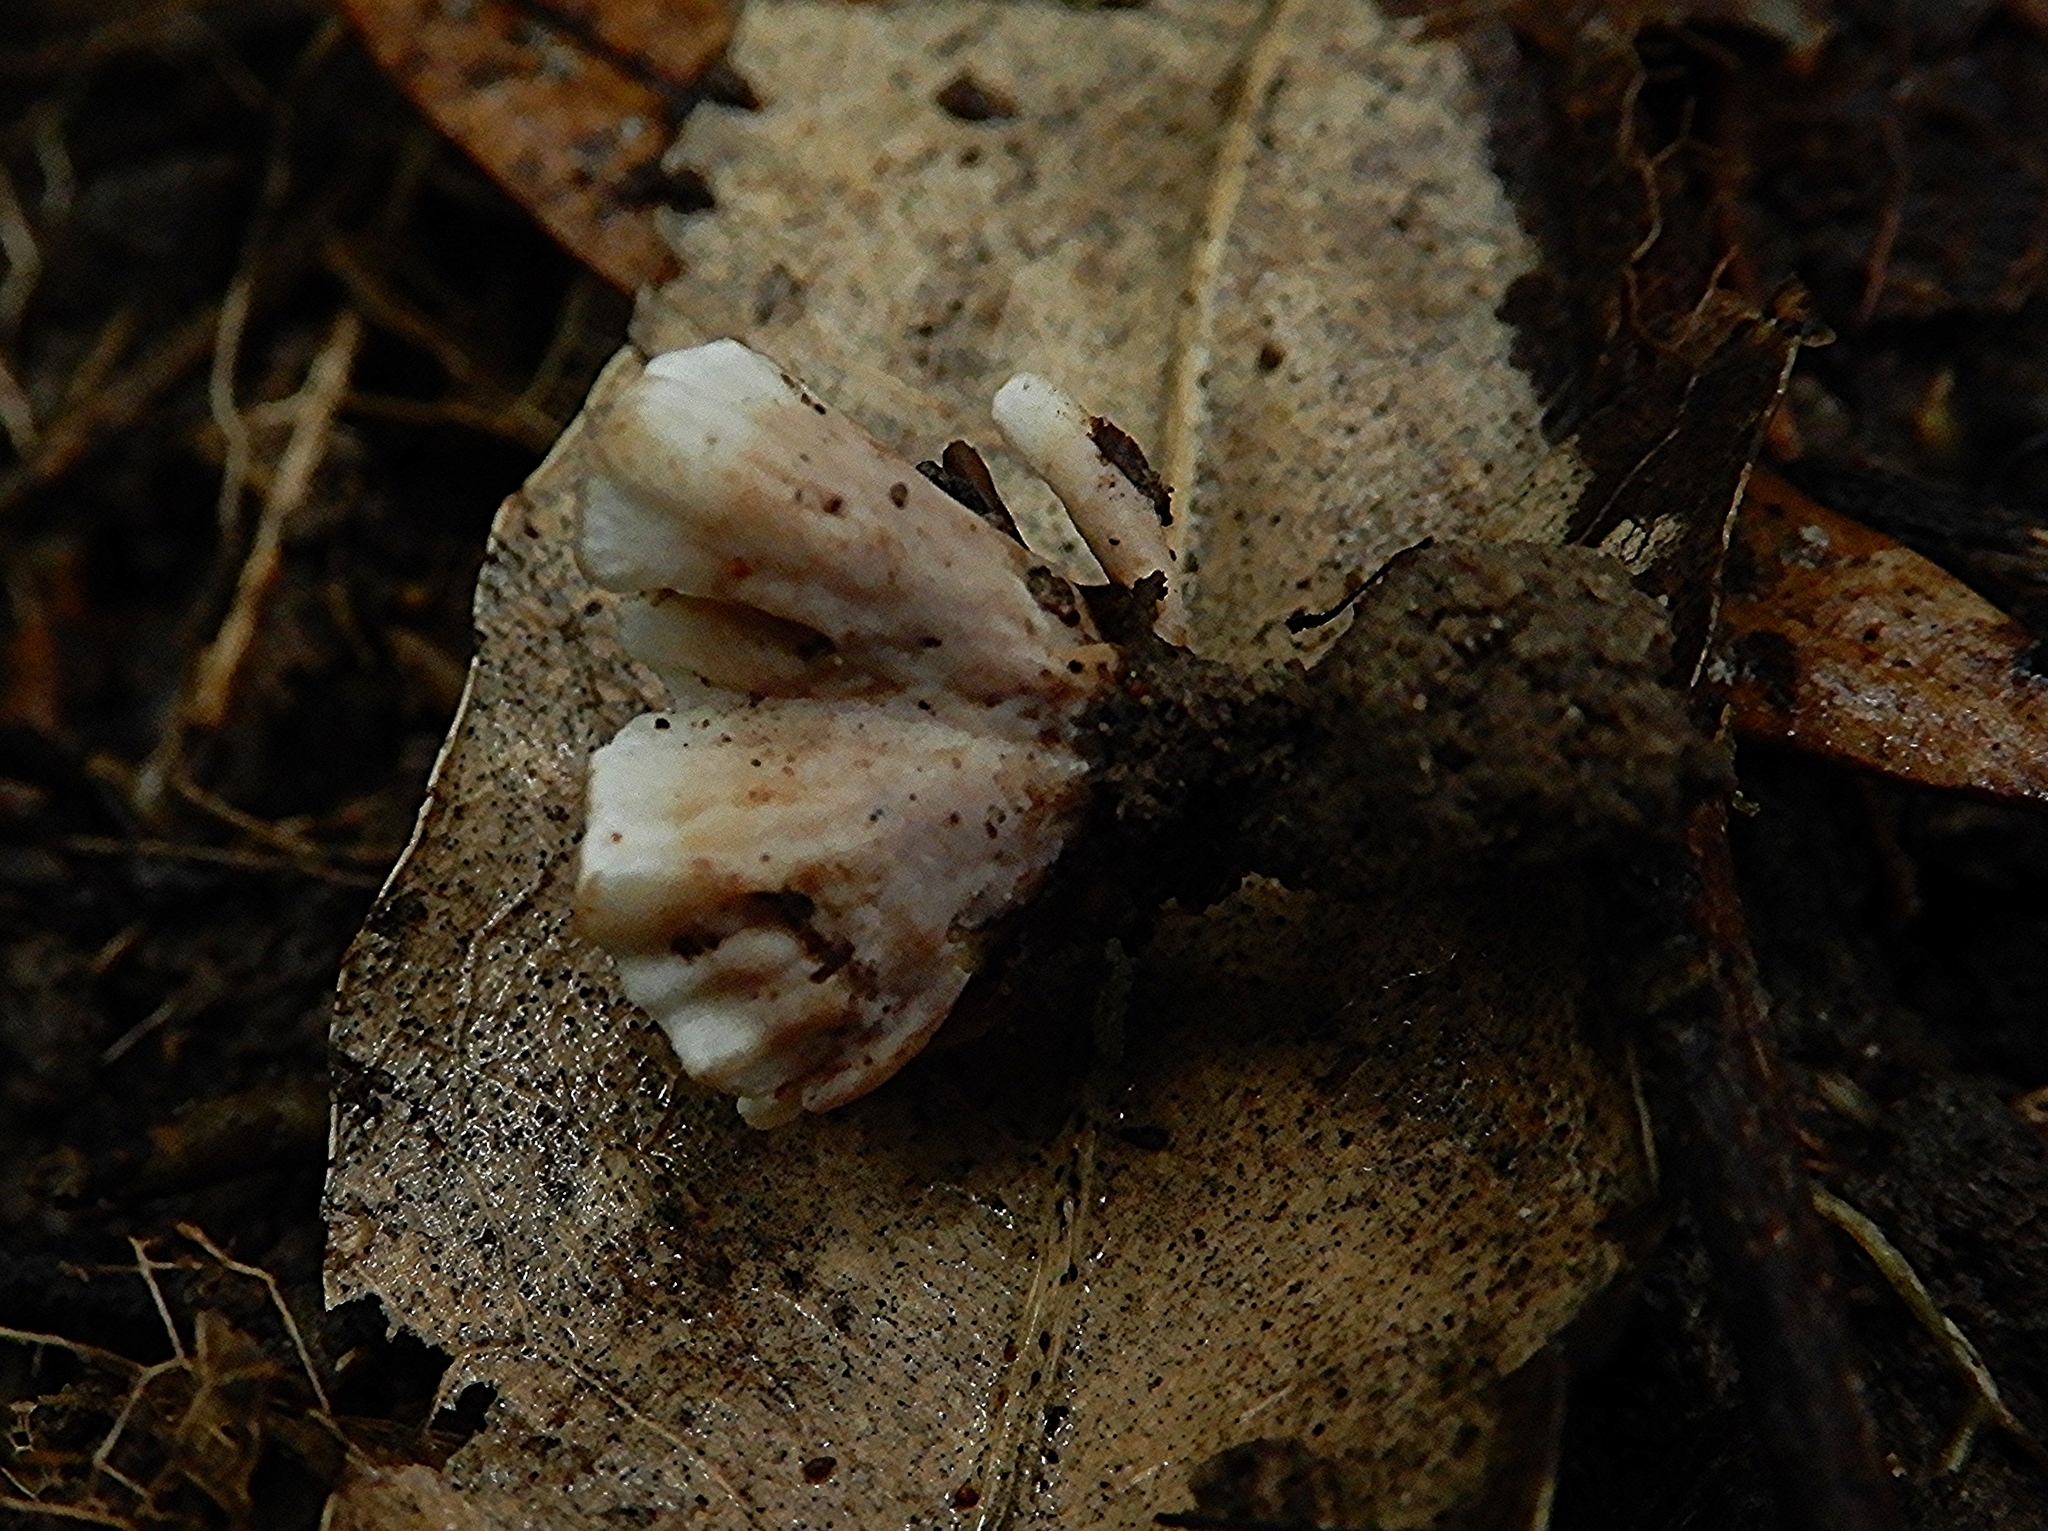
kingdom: Fungi
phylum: Basidiomycota
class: Agaricomycetes
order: Stereopsidales
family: Stereopsidaceae
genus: Stereopsis
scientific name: Stereopsis hiscens
